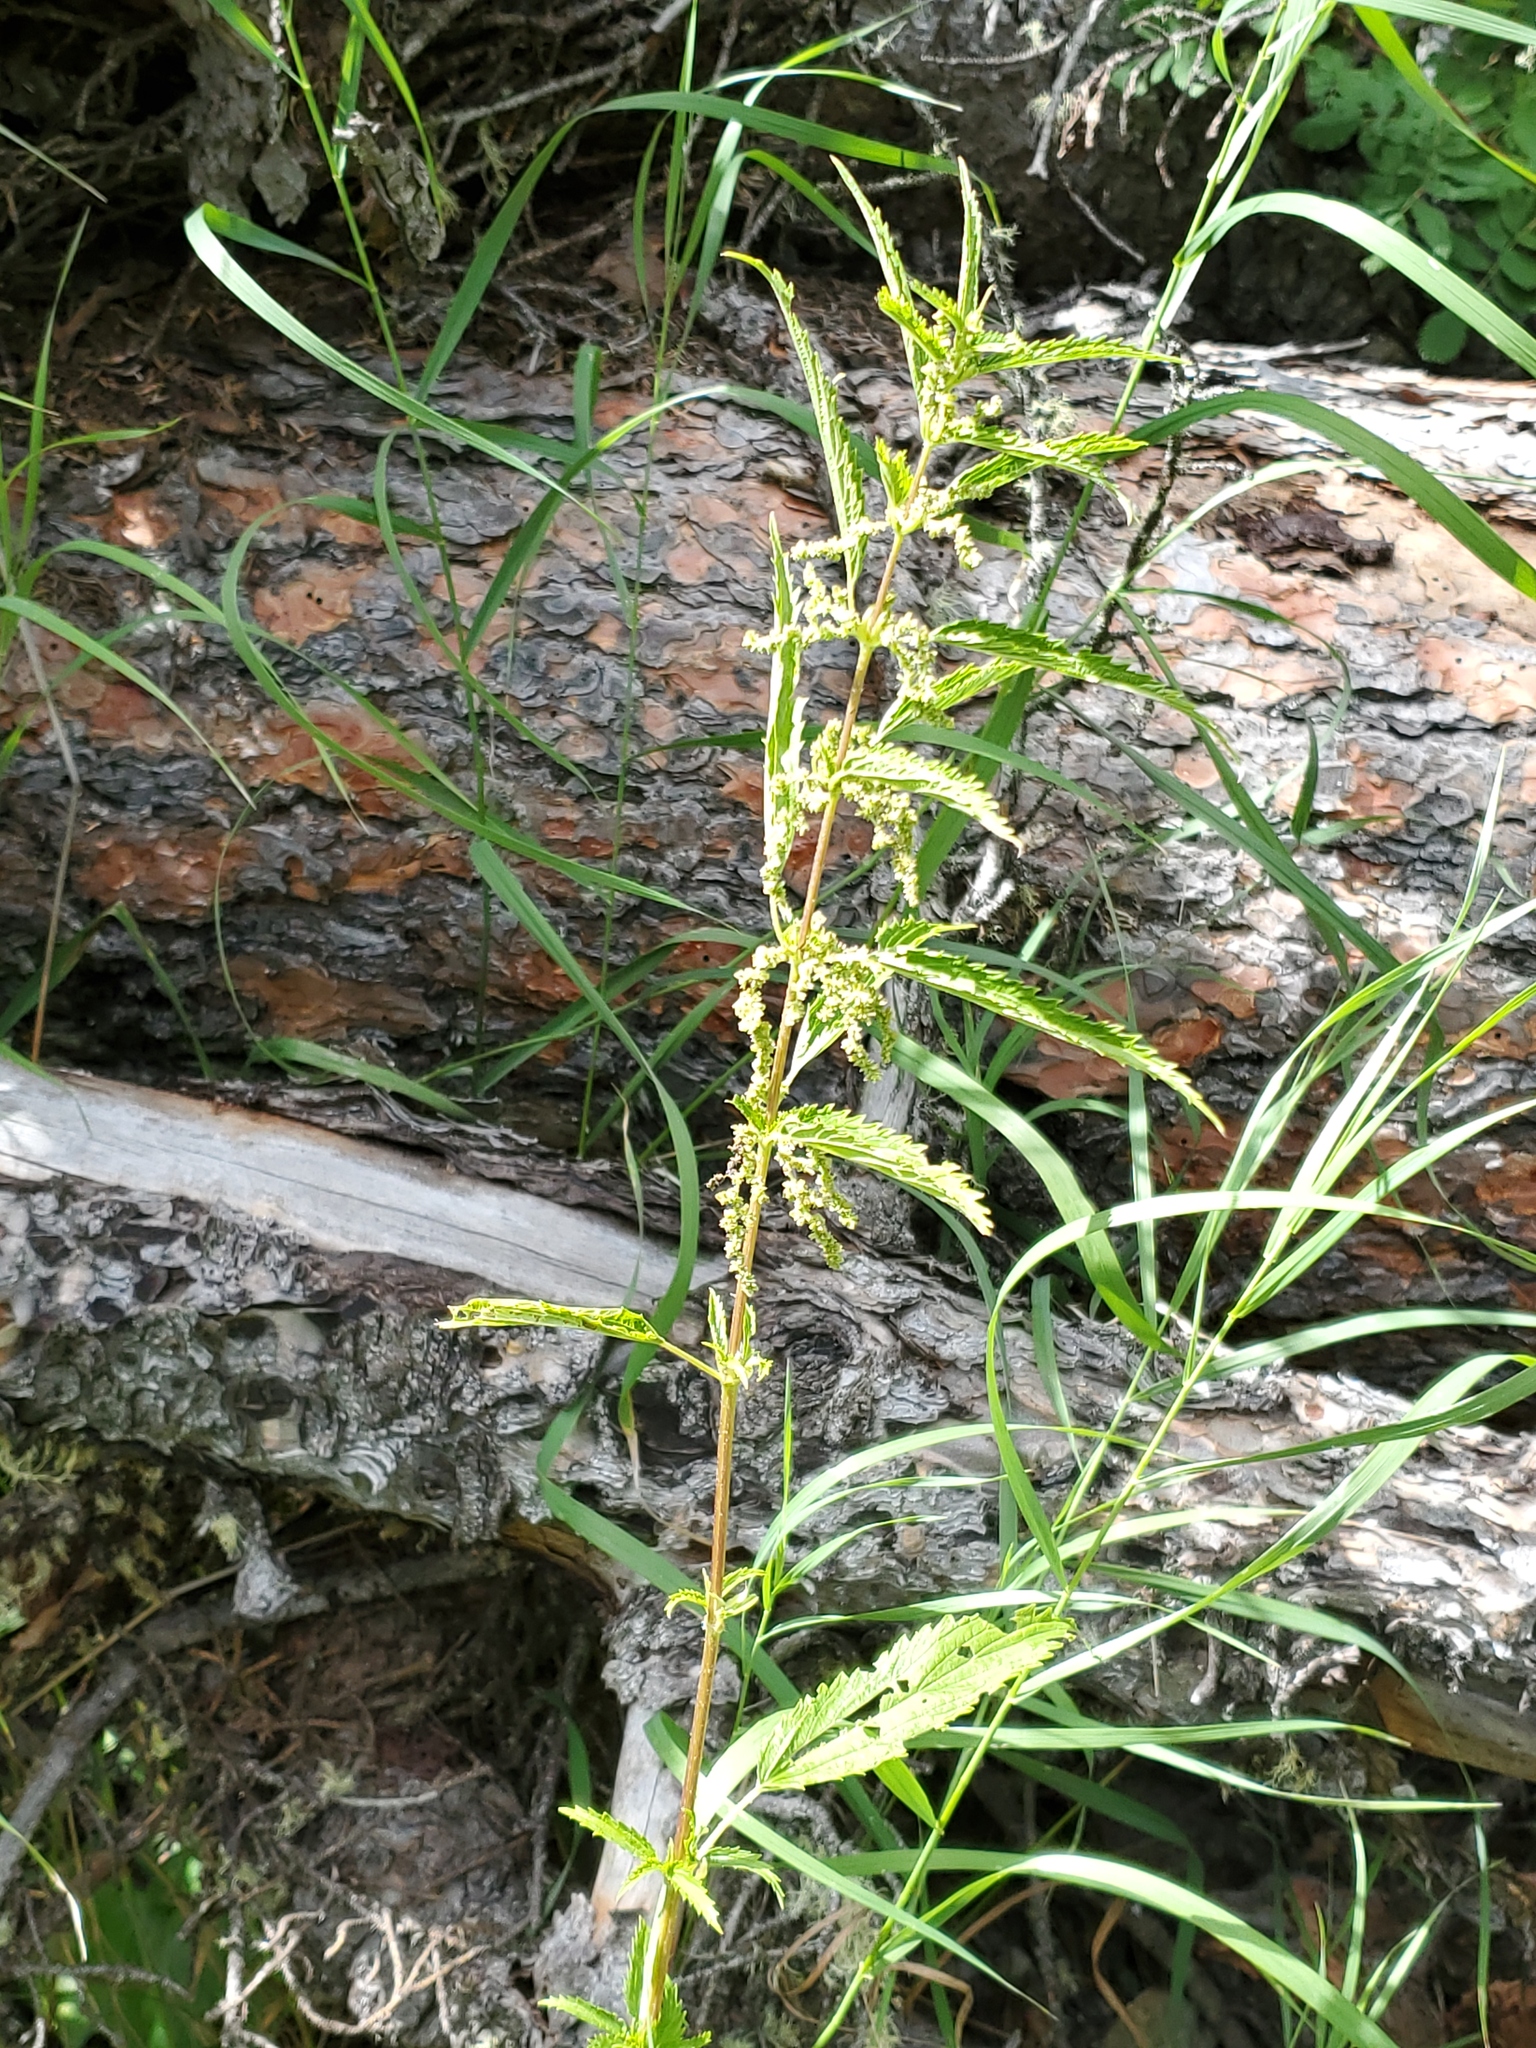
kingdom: Plantae
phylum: Tracheophyta
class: Magnoliopsida
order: Rosales
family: Urticaceae
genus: Urtica
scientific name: Urtica gracilis
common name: Slender stinging nettle
